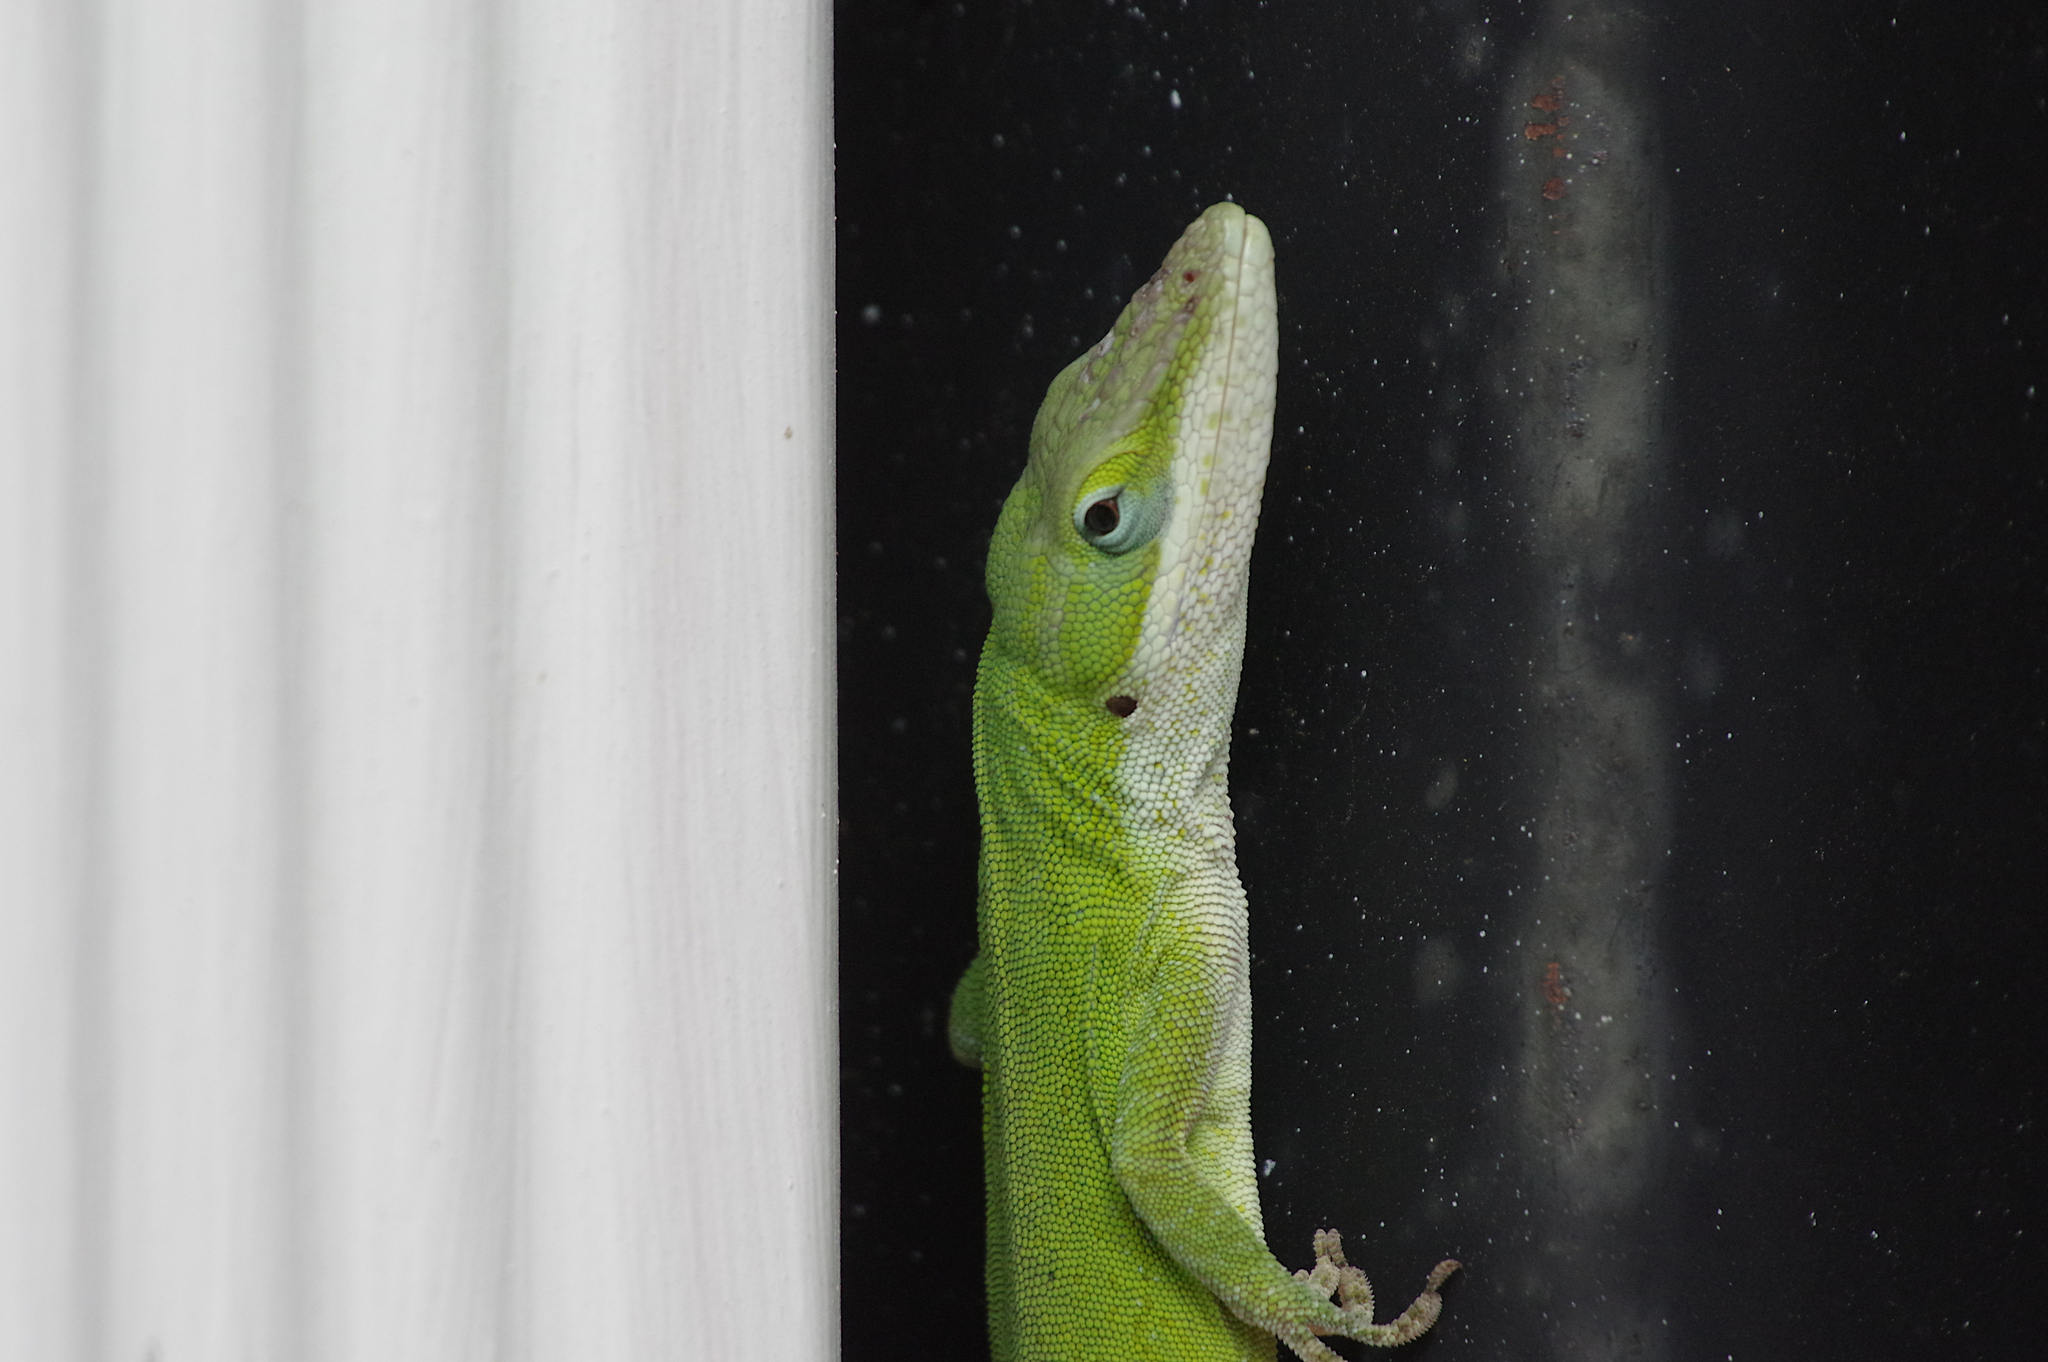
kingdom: Animalia
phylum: Chordata
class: Squamata
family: Dactyloidae
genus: Anolis
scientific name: Anolis carolinensis
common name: Green anole
